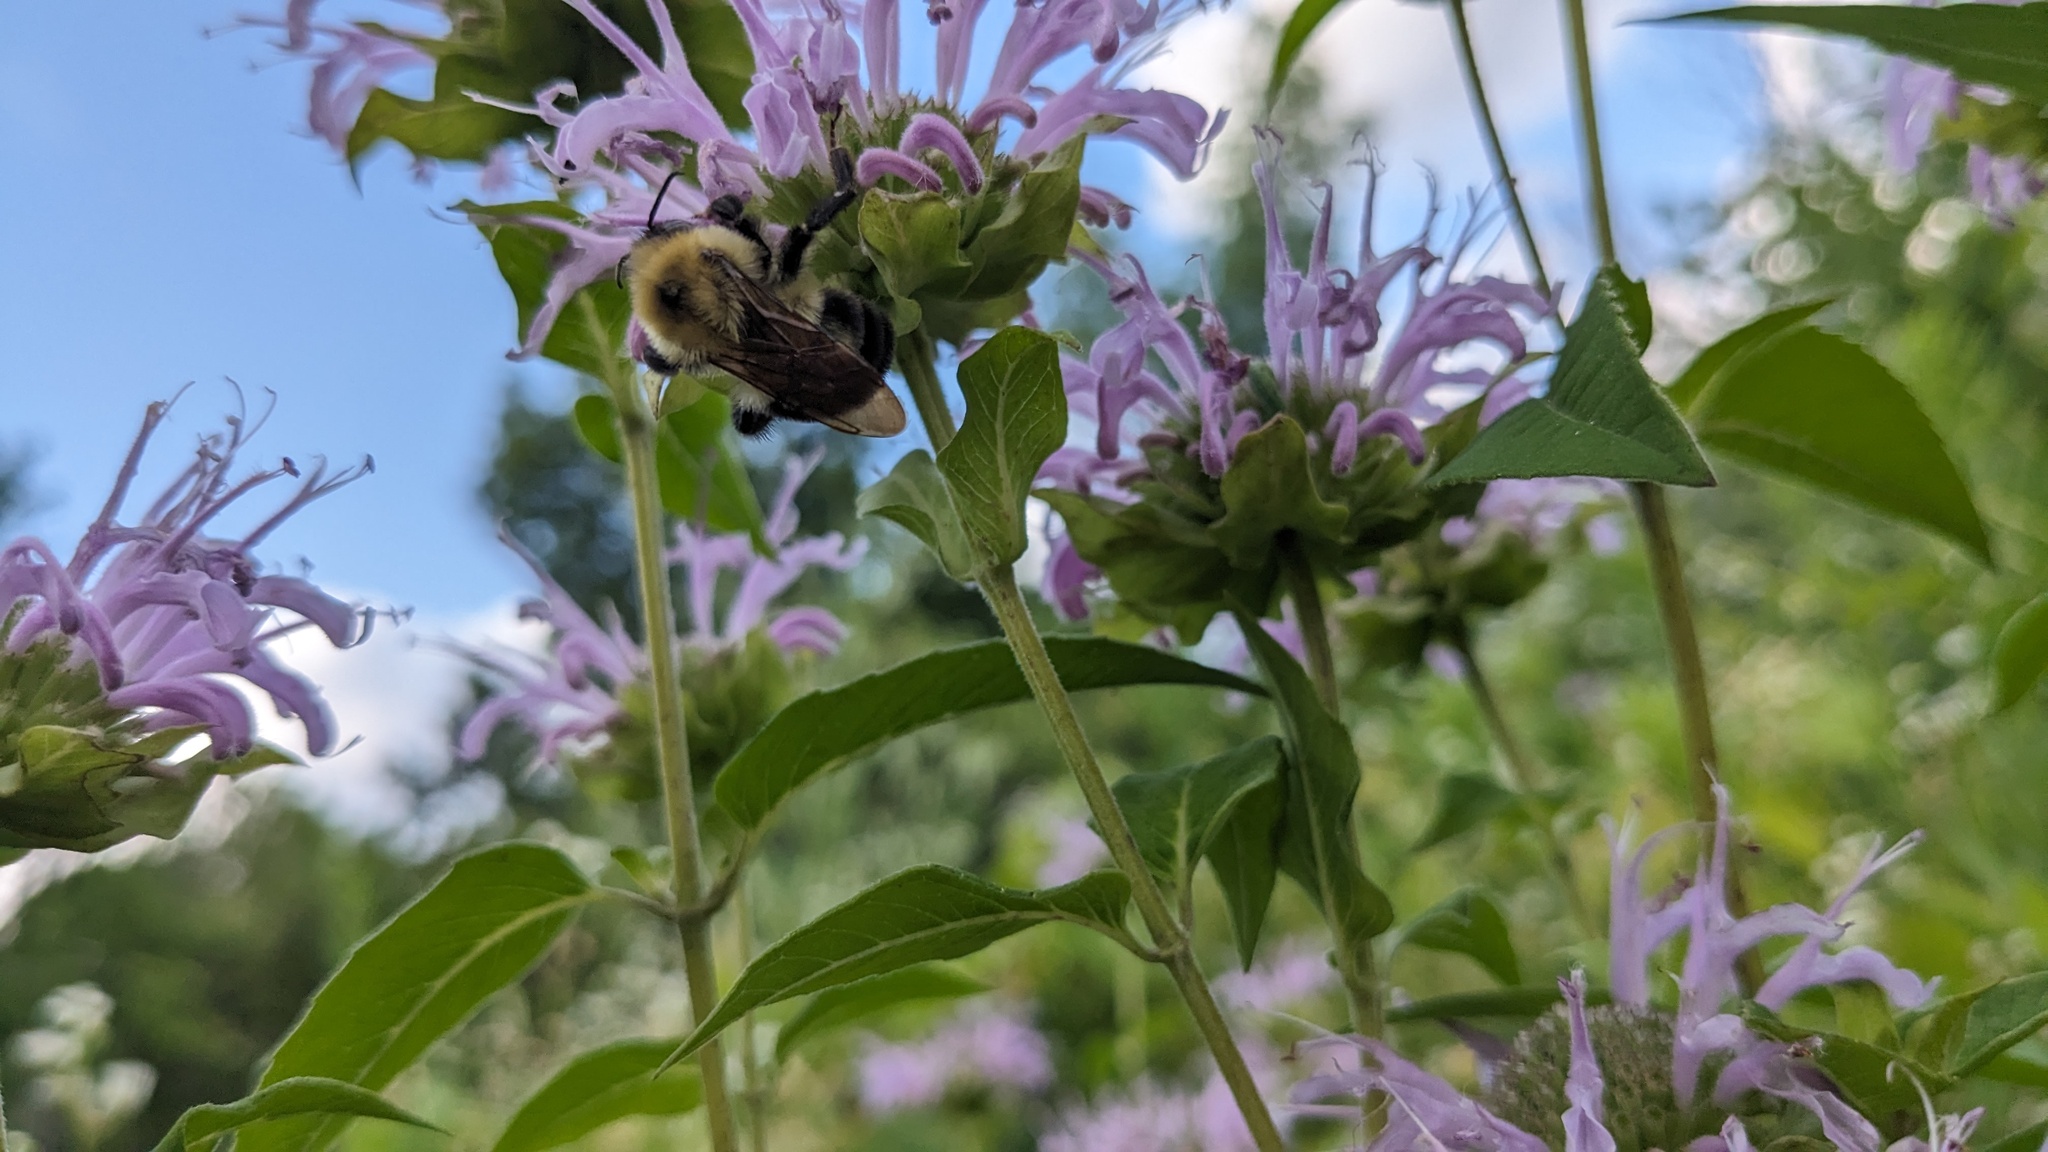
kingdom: Animalia
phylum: Arthropoda
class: Insecta
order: Hymenoptera
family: Apidae
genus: Bombus
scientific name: Bombus bimaculatus
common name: Two-spotted bumble bee
